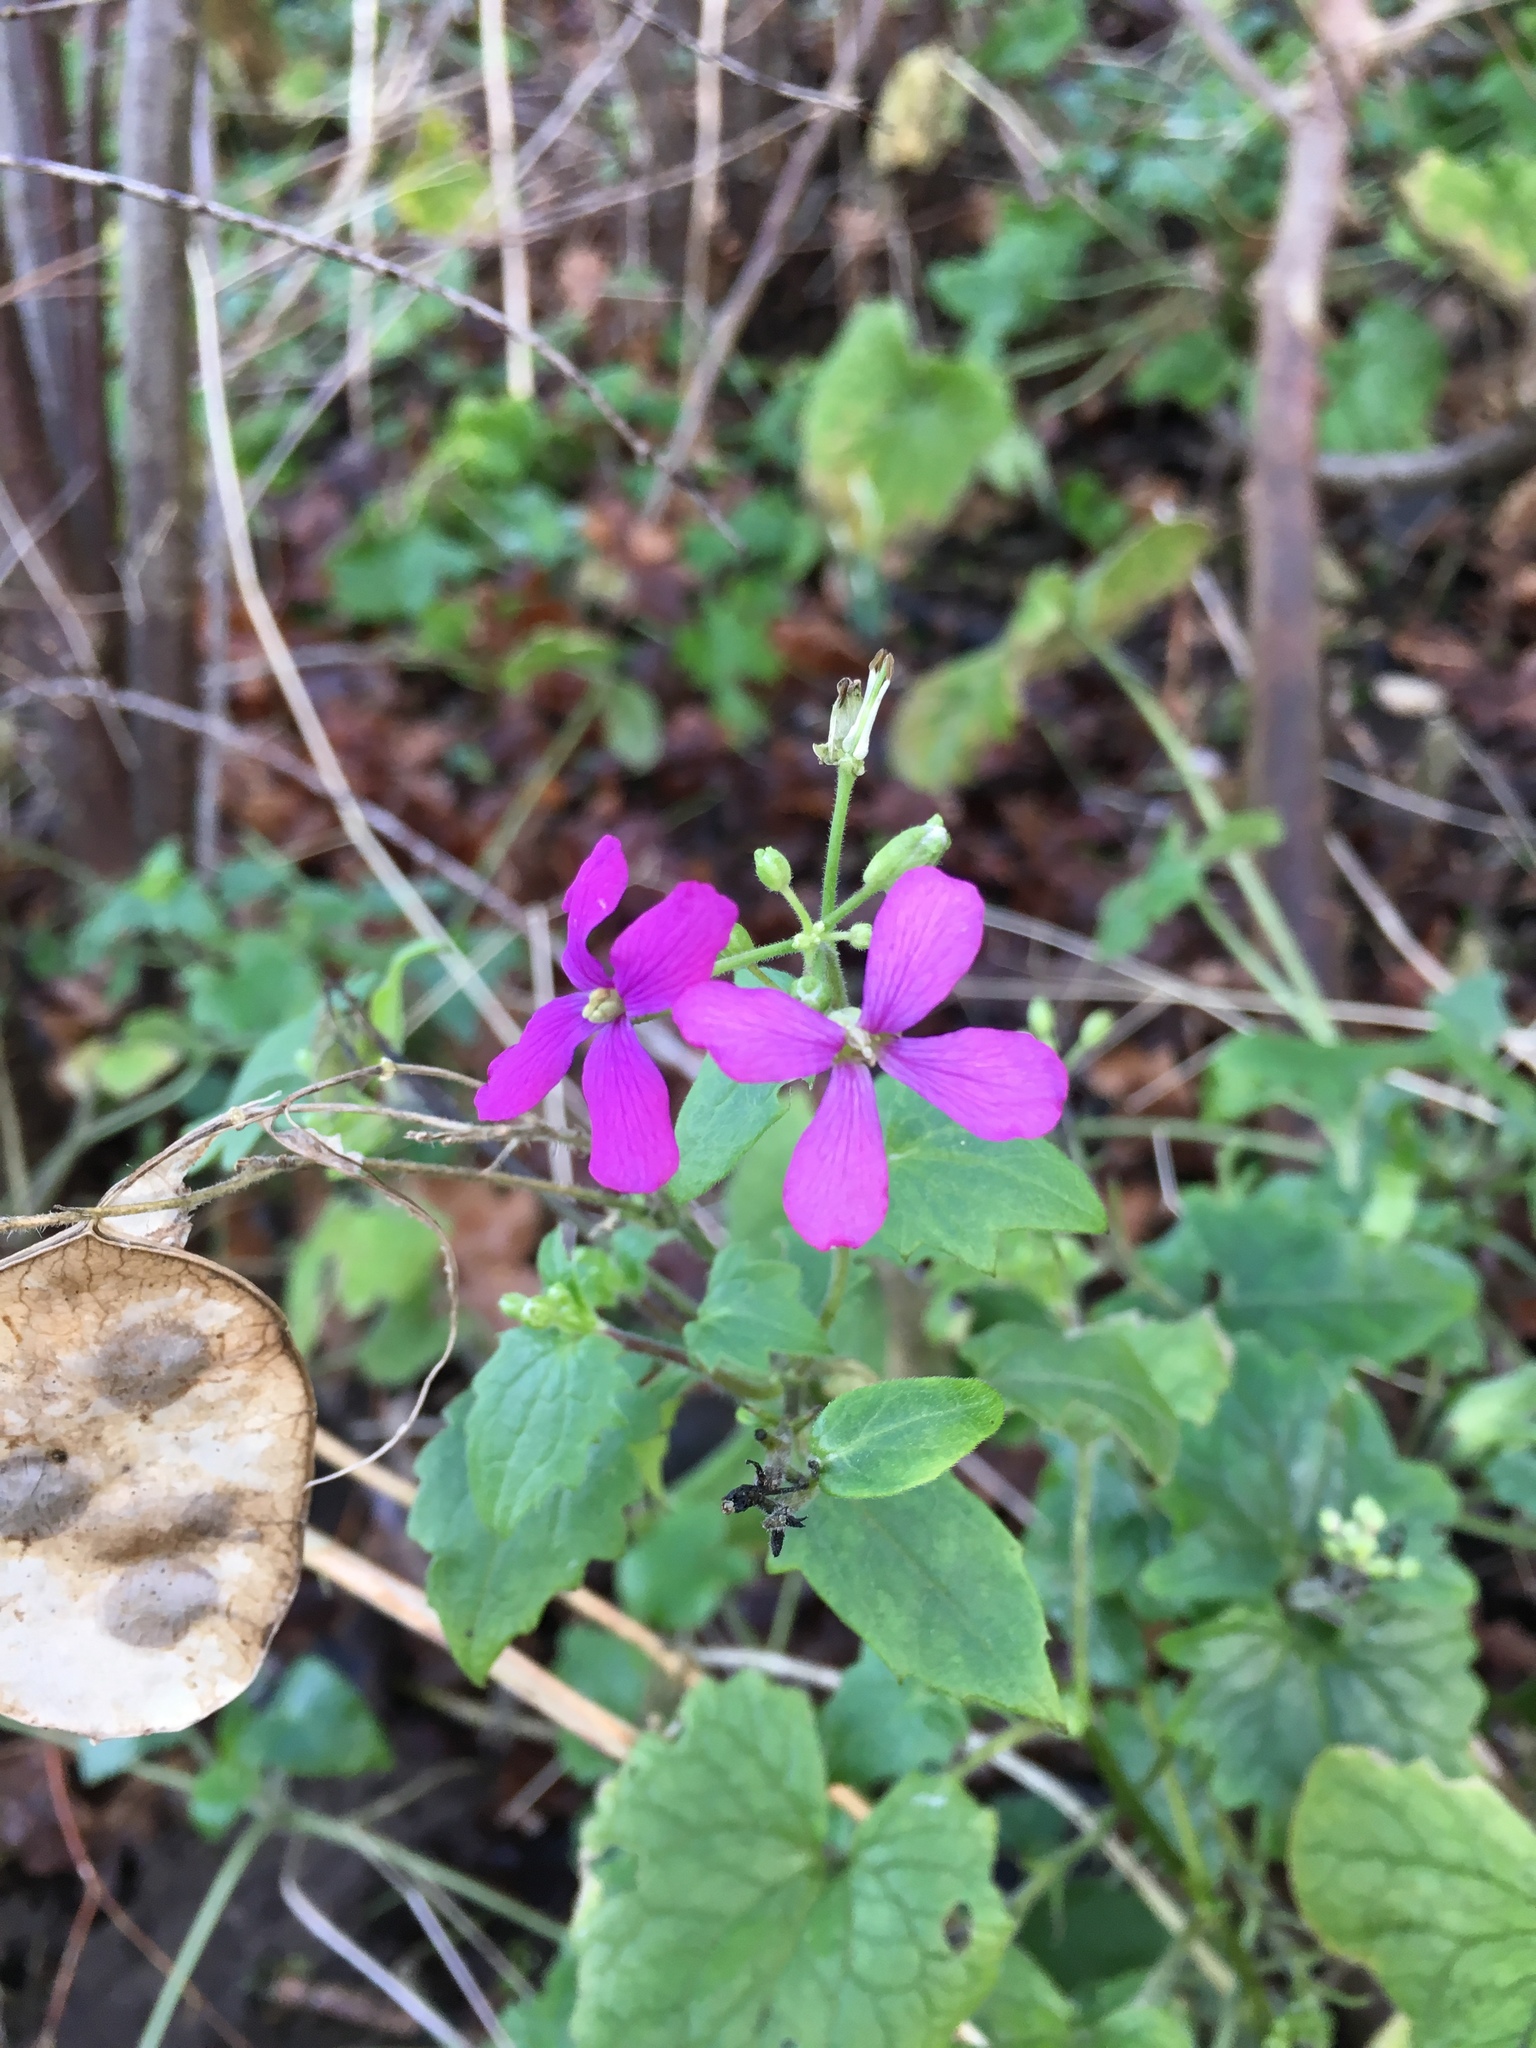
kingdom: Plantae
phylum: Tracheophyta
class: Magnoliopsida
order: Brassicales
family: Brassicaceae
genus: Lunaria
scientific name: Lunaria annua
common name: Honesty
